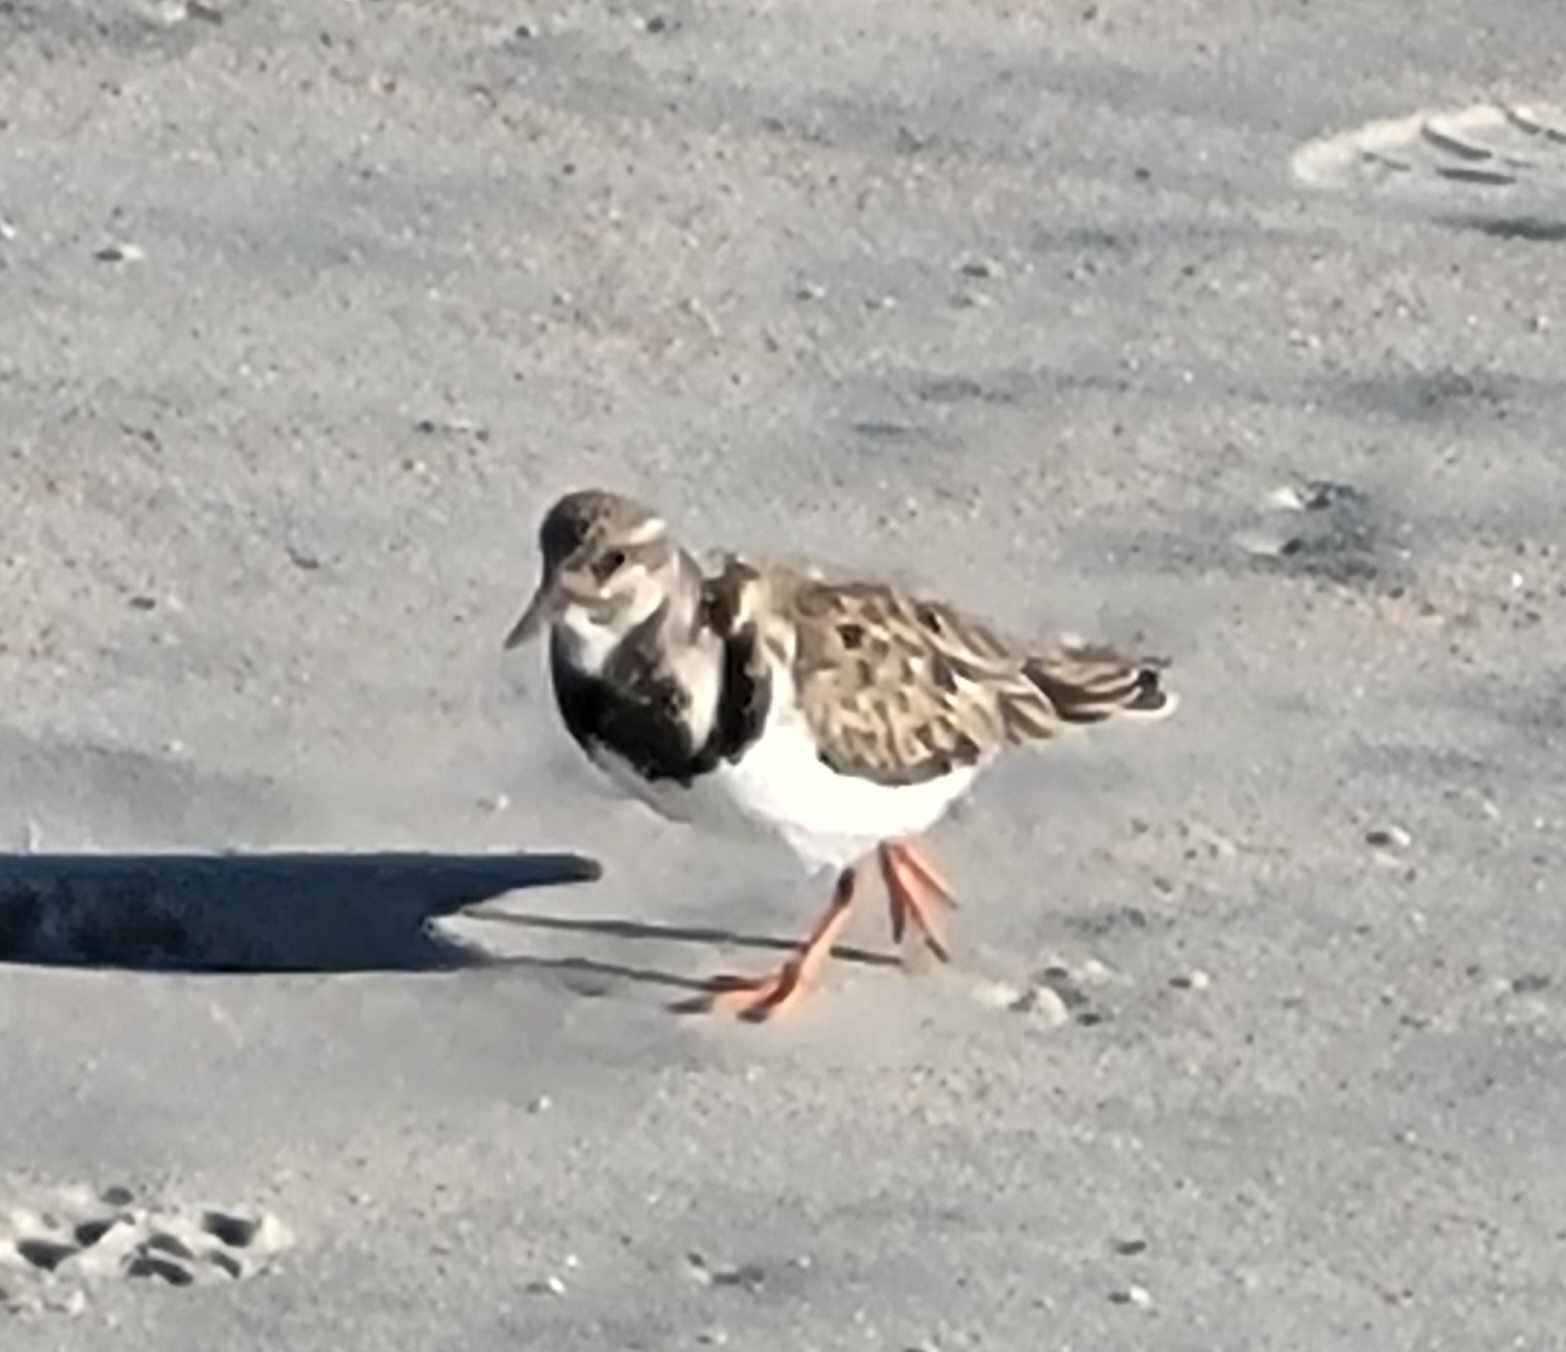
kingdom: Animalia
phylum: Chordata
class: Aves
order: Charadriiformes
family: Scolopacidae
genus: Arenaria
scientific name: Arenaria interpres
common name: Ruddy turnstone
